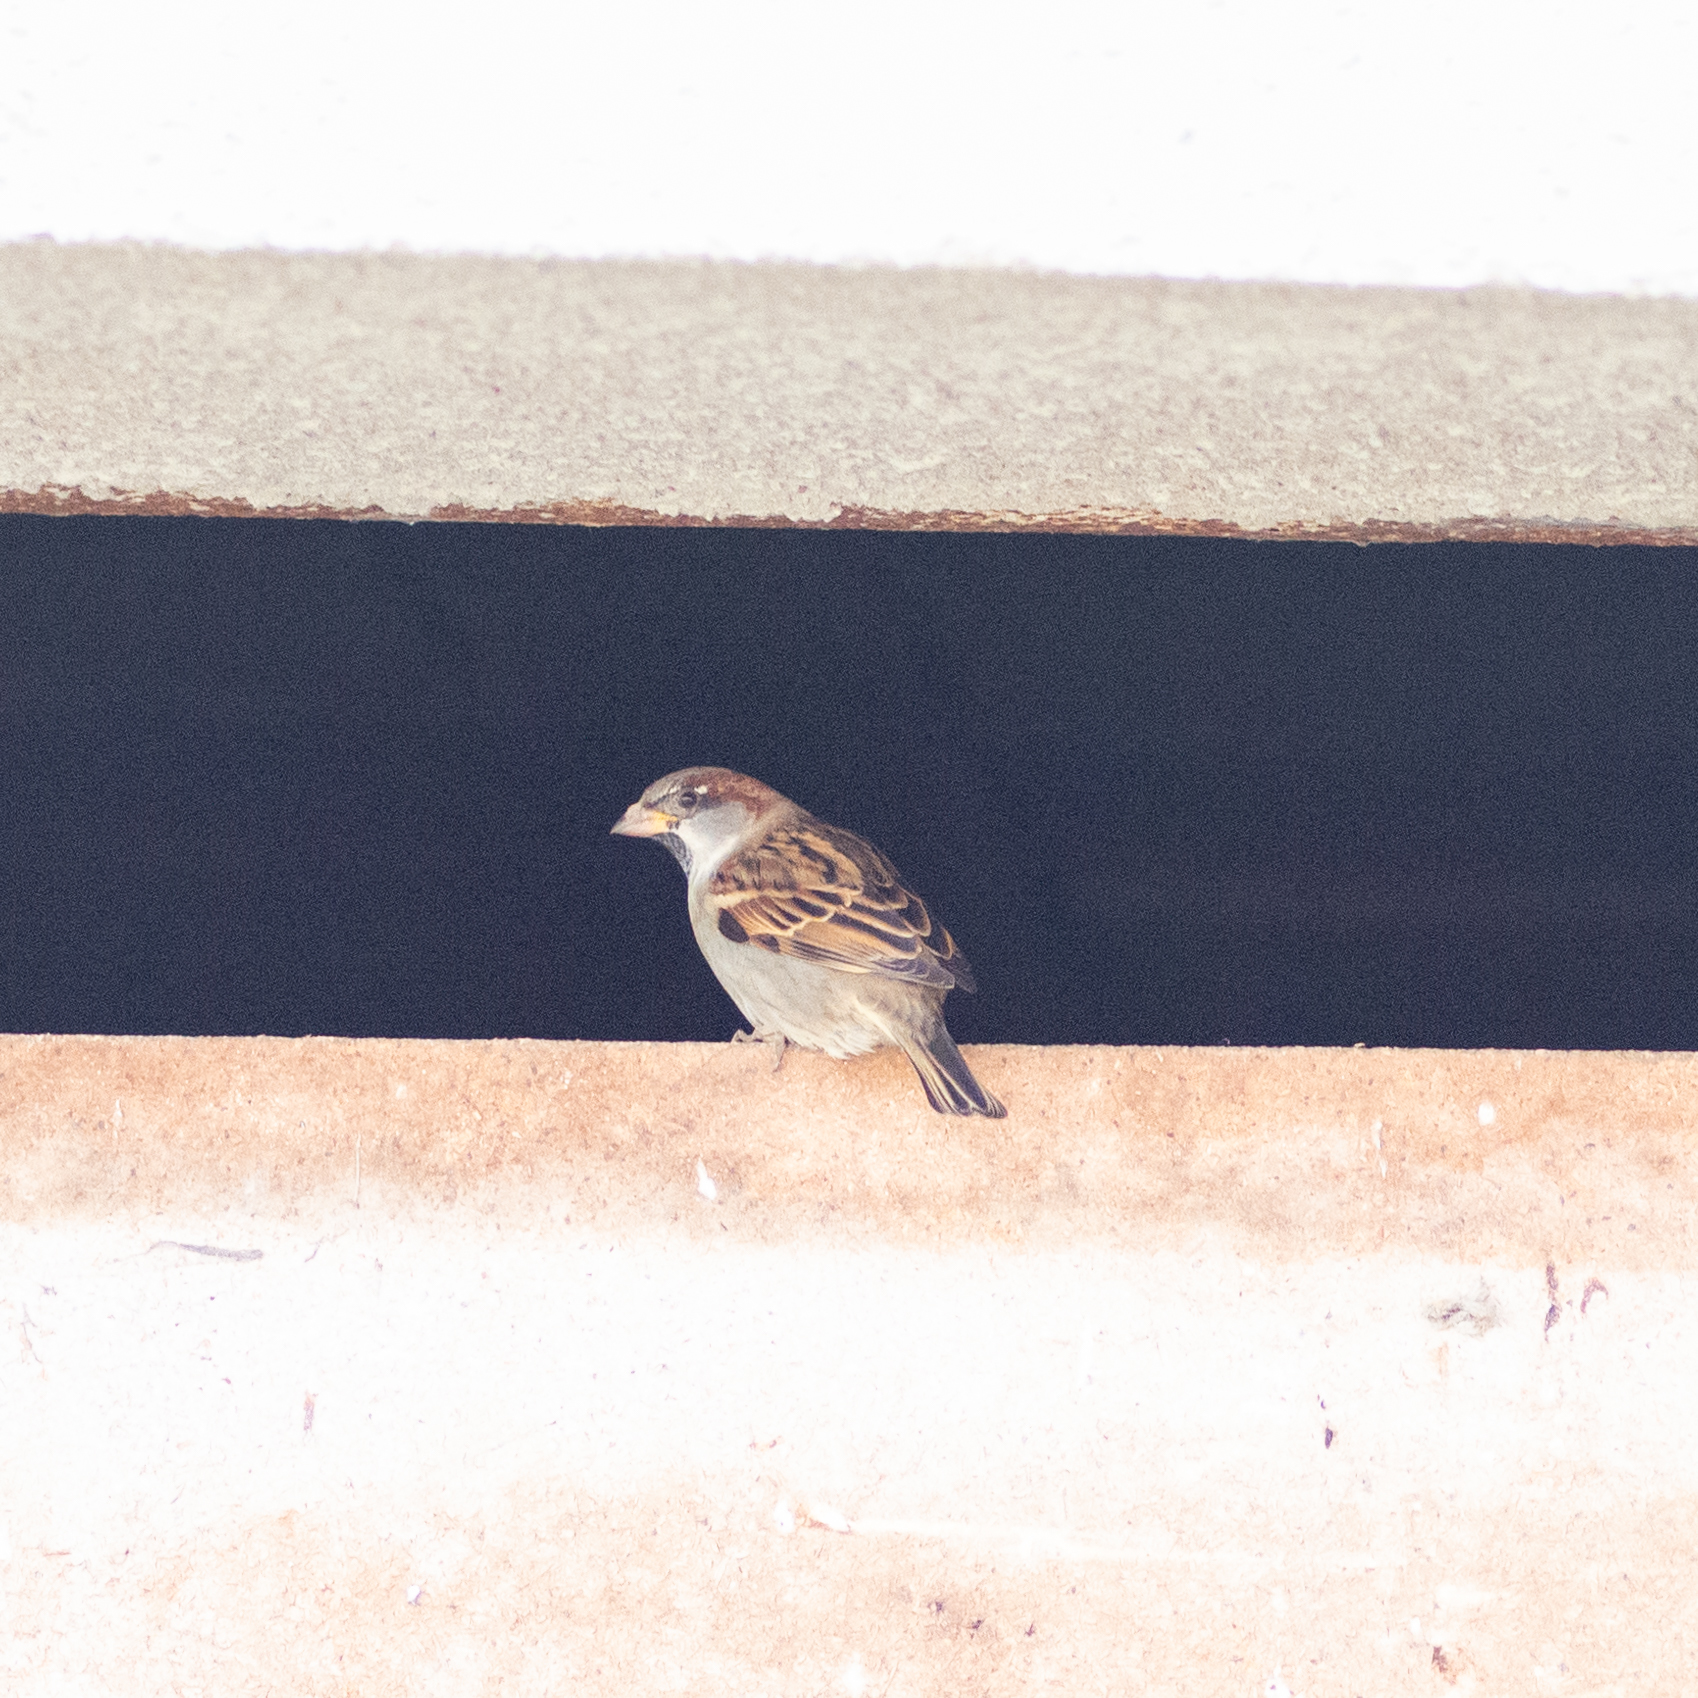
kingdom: Animalia
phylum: Chordata
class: Aves
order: Passeriformes
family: Passeridae
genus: Passer
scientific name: Passer domesticus
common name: House sparrow
